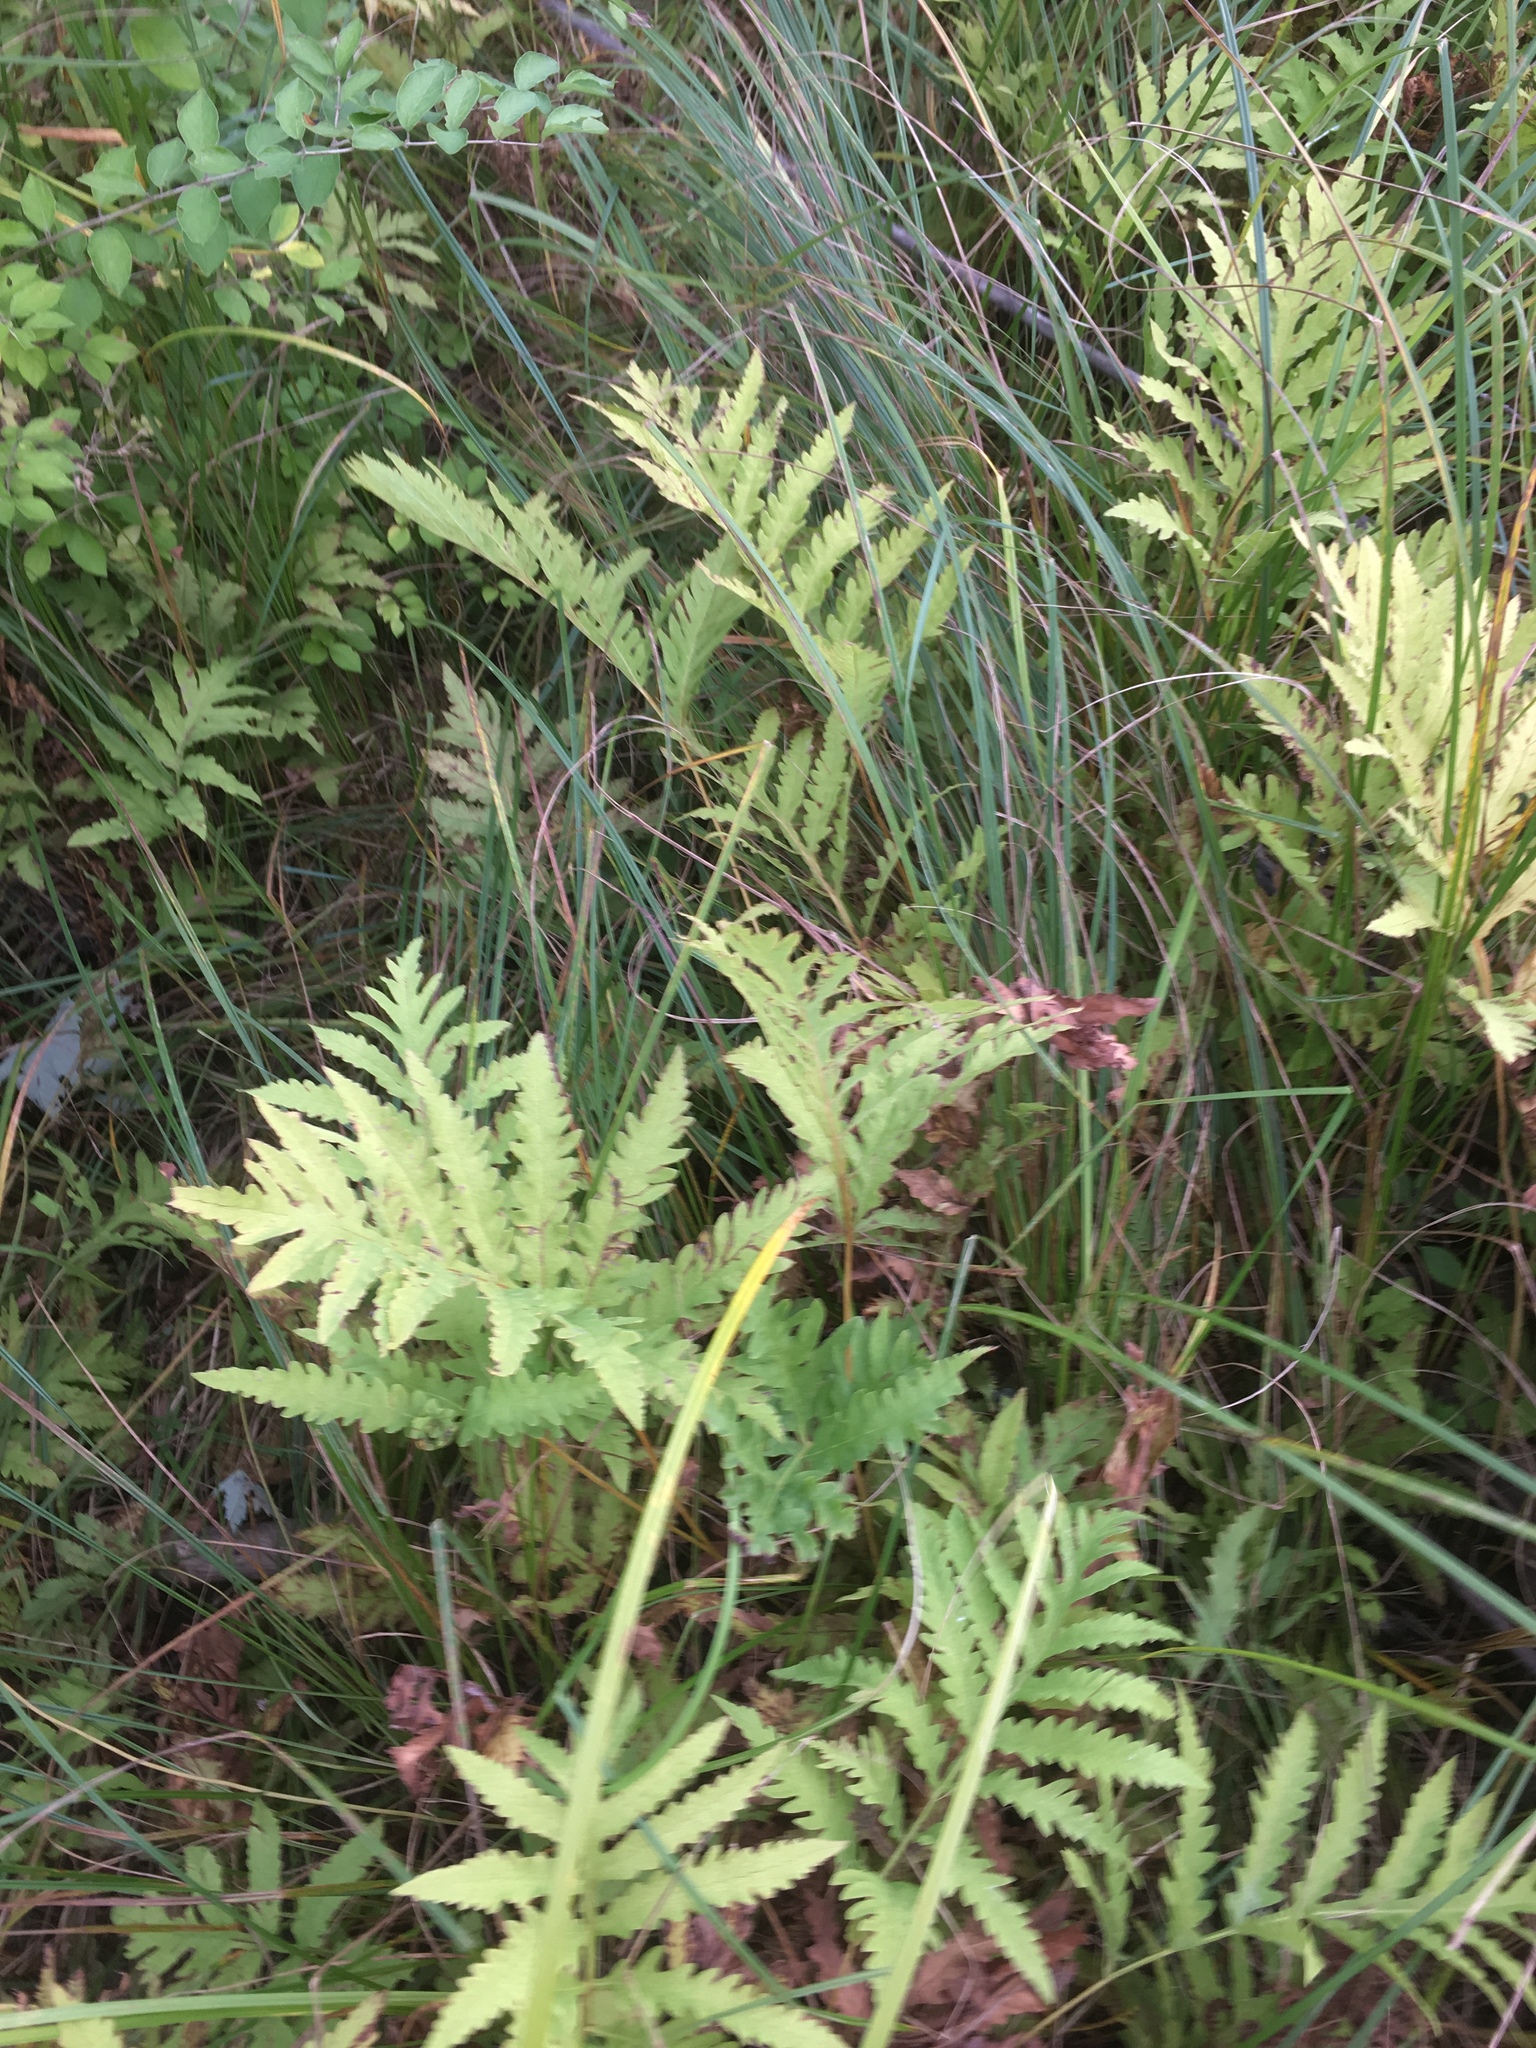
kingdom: Plantae
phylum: Tracheophyta
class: Polypodiopsida
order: Polypodiales
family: Onocleaceae
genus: Onoclea
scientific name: Onoclea sensibilis
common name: Sensitive fern
